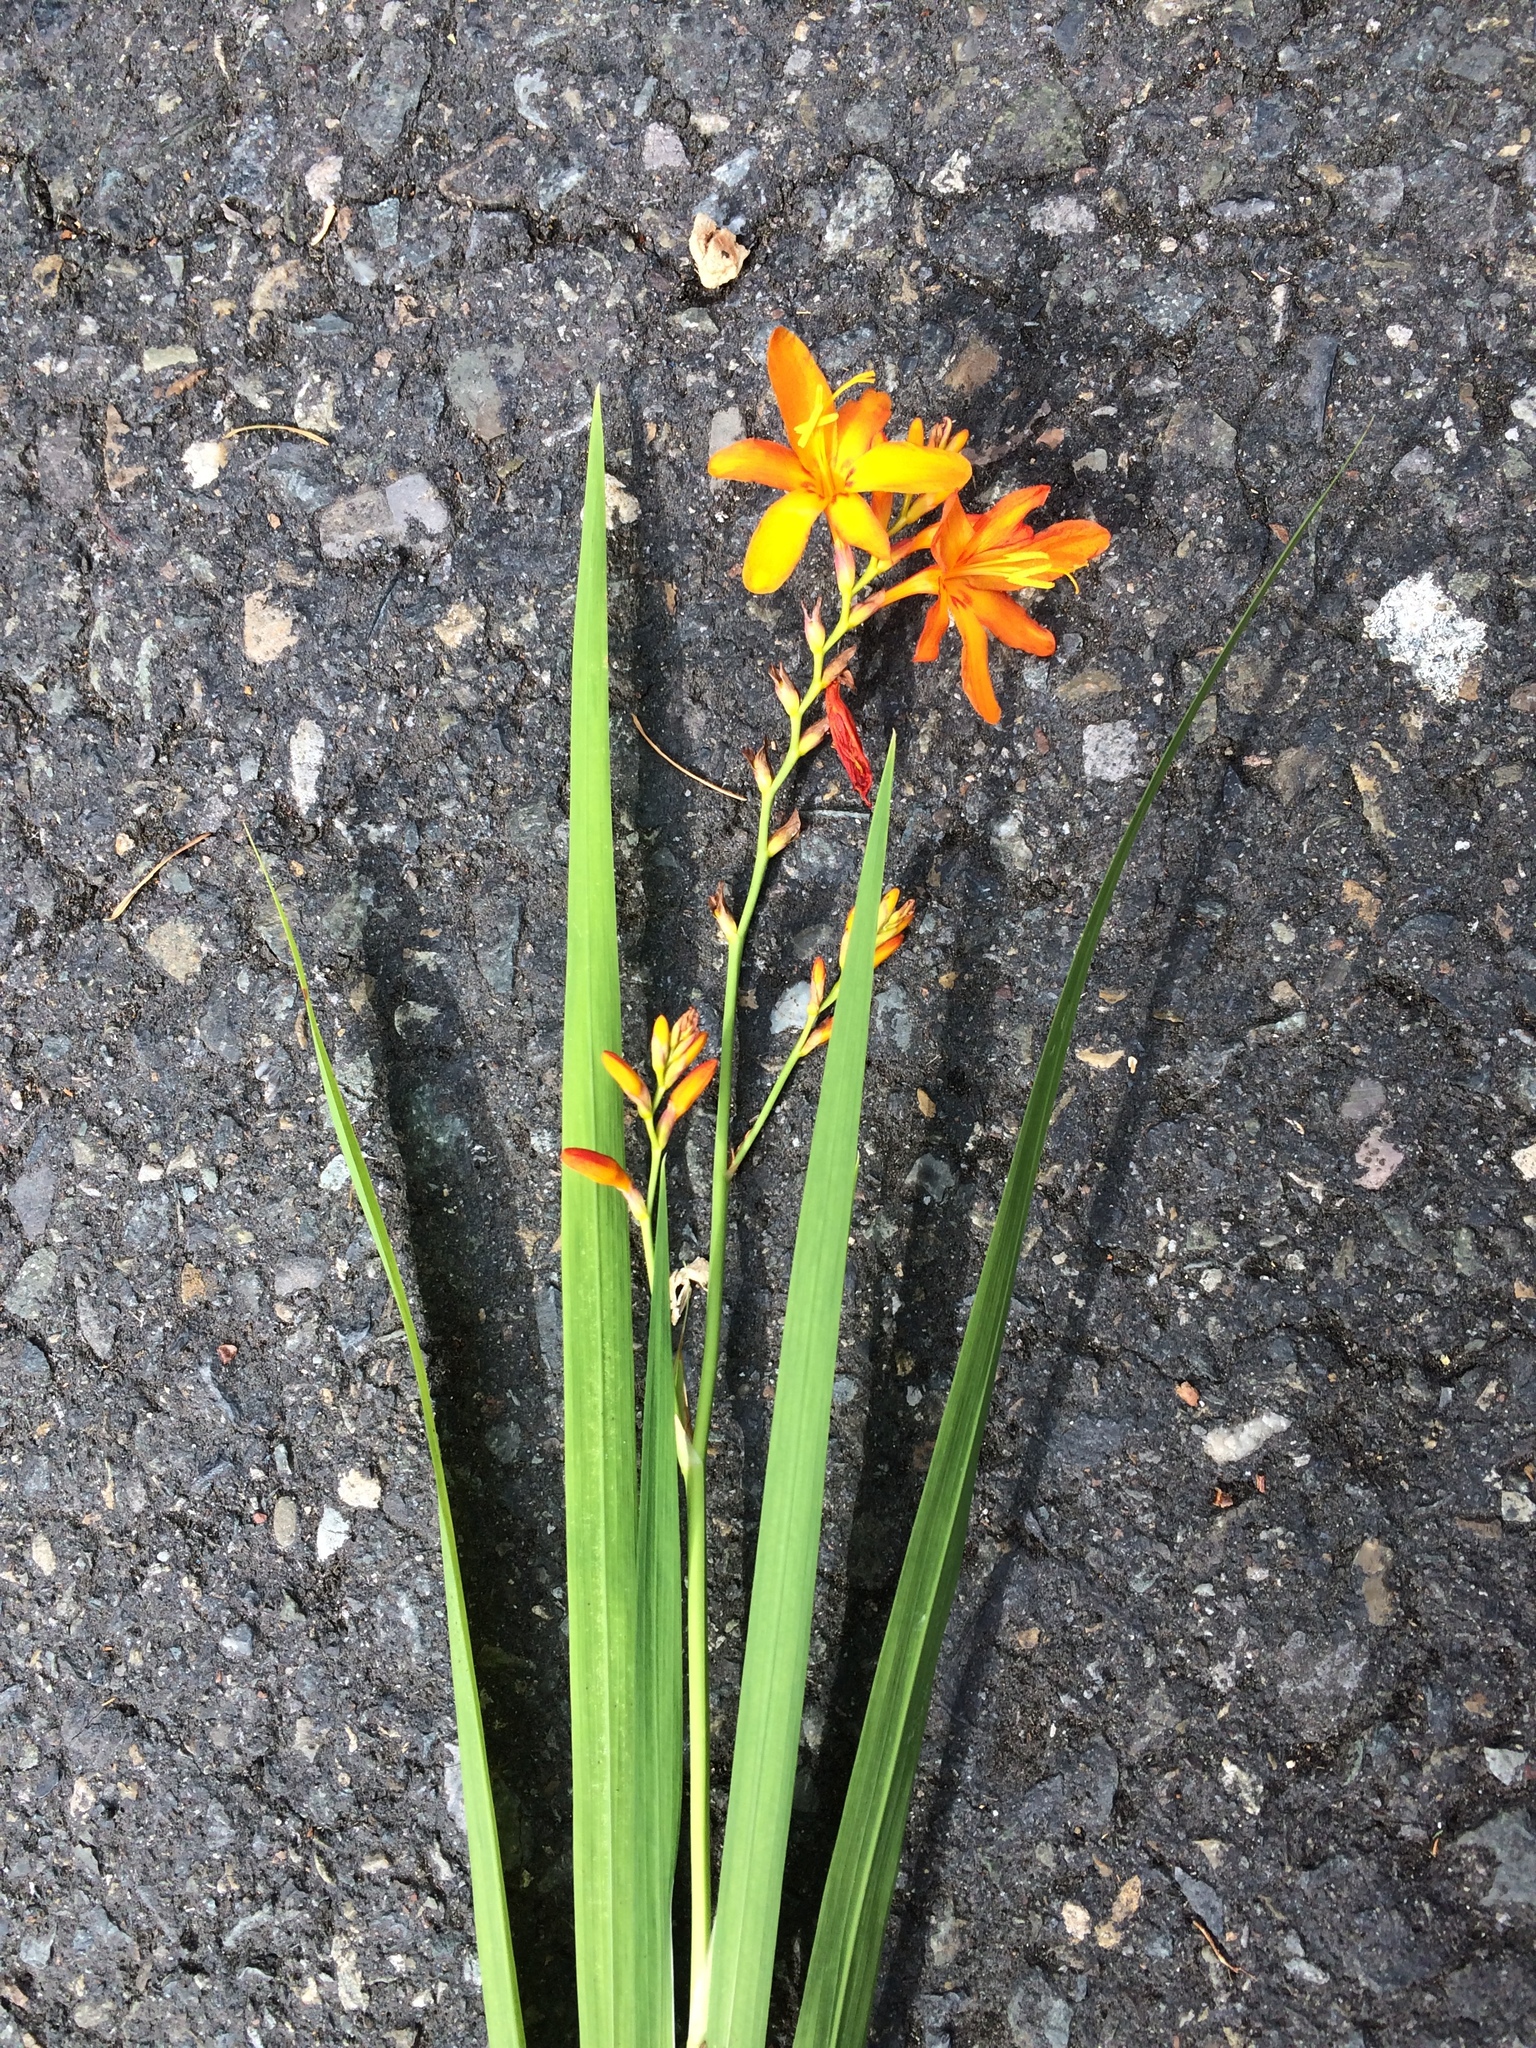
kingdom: Plantae
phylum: Tracheophyta
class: Liliopsida
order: Asparagales
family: Iridaceae
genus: Crocosmia
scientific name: Crocosmia crocosmiiflora
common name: Montbretia
